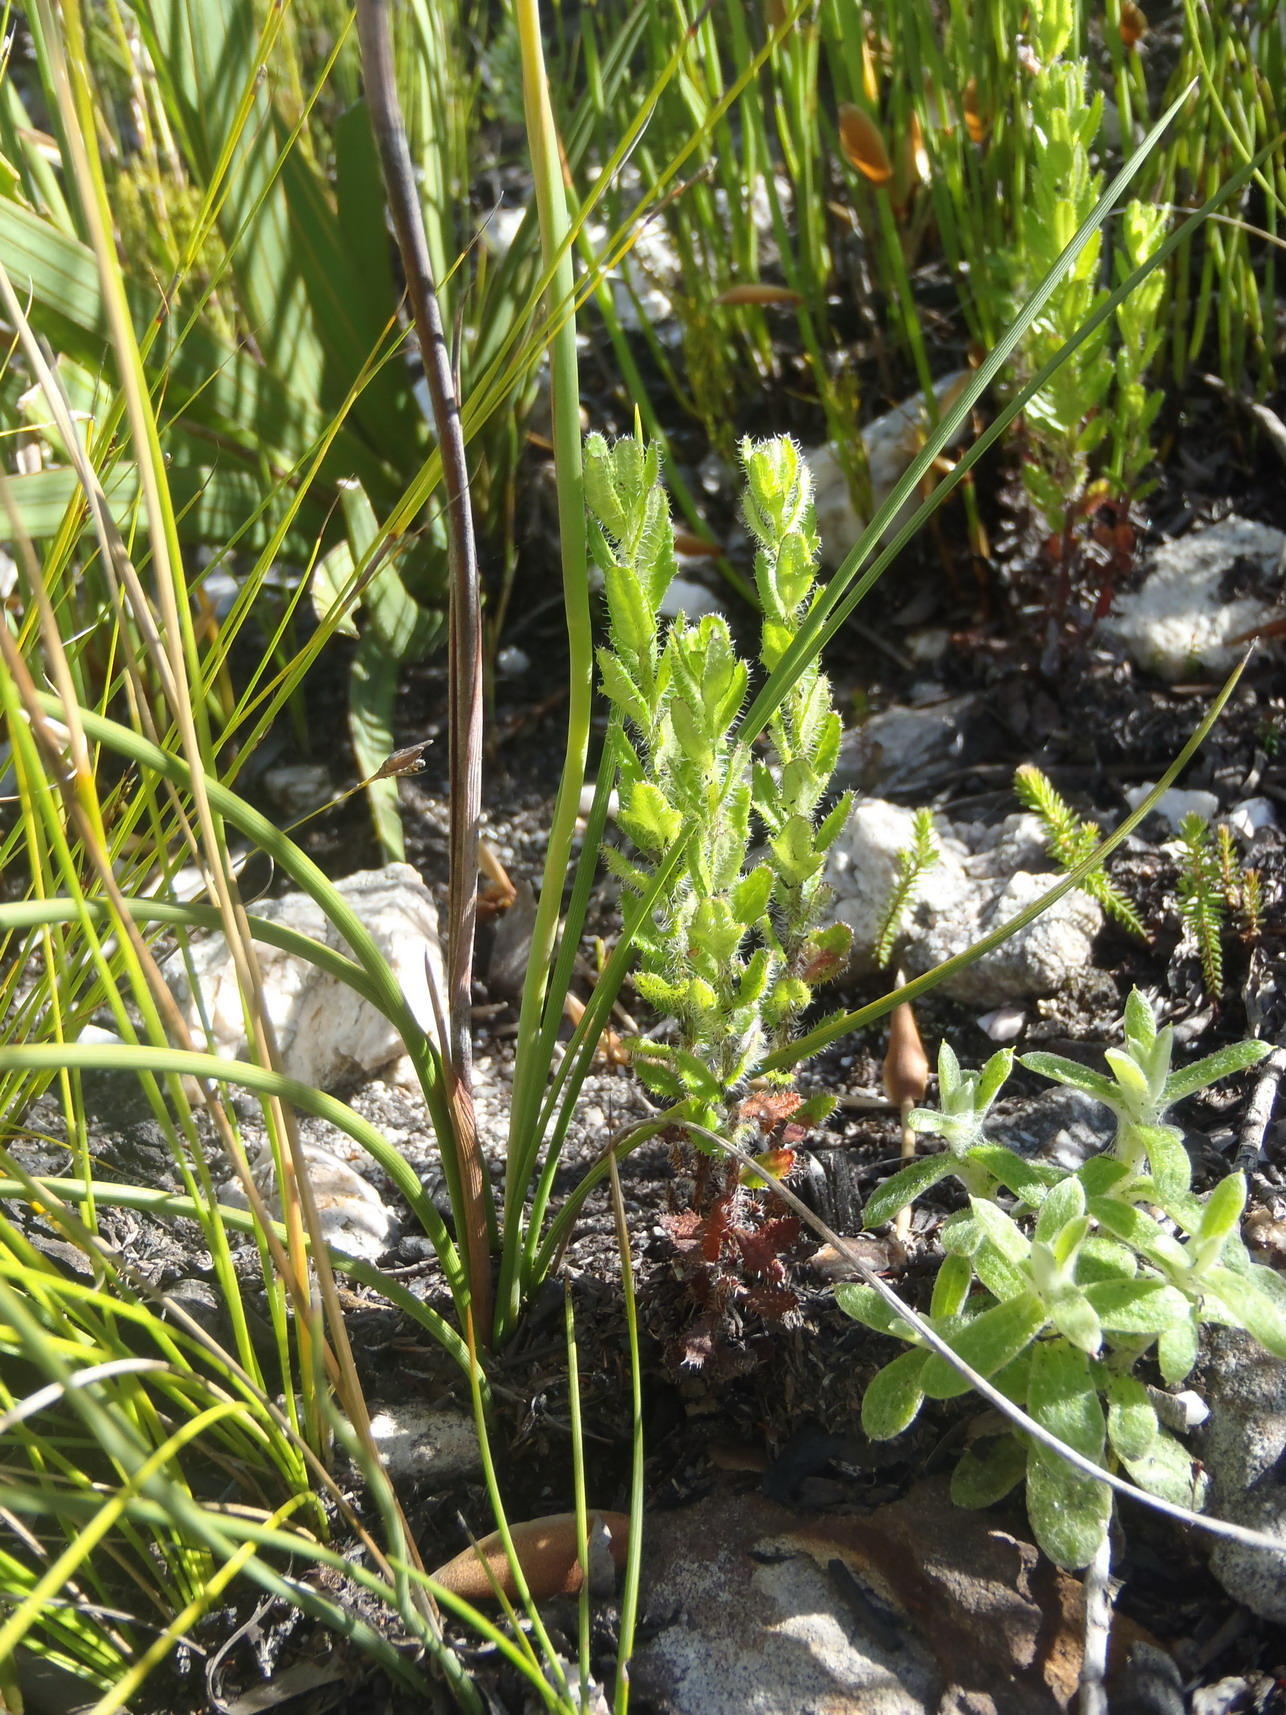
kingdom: Plantae
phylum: Tracheophyta
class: Liliopsida
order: Asparagales
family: Iridaceae
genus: Aristea
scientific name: Aristea simplex
